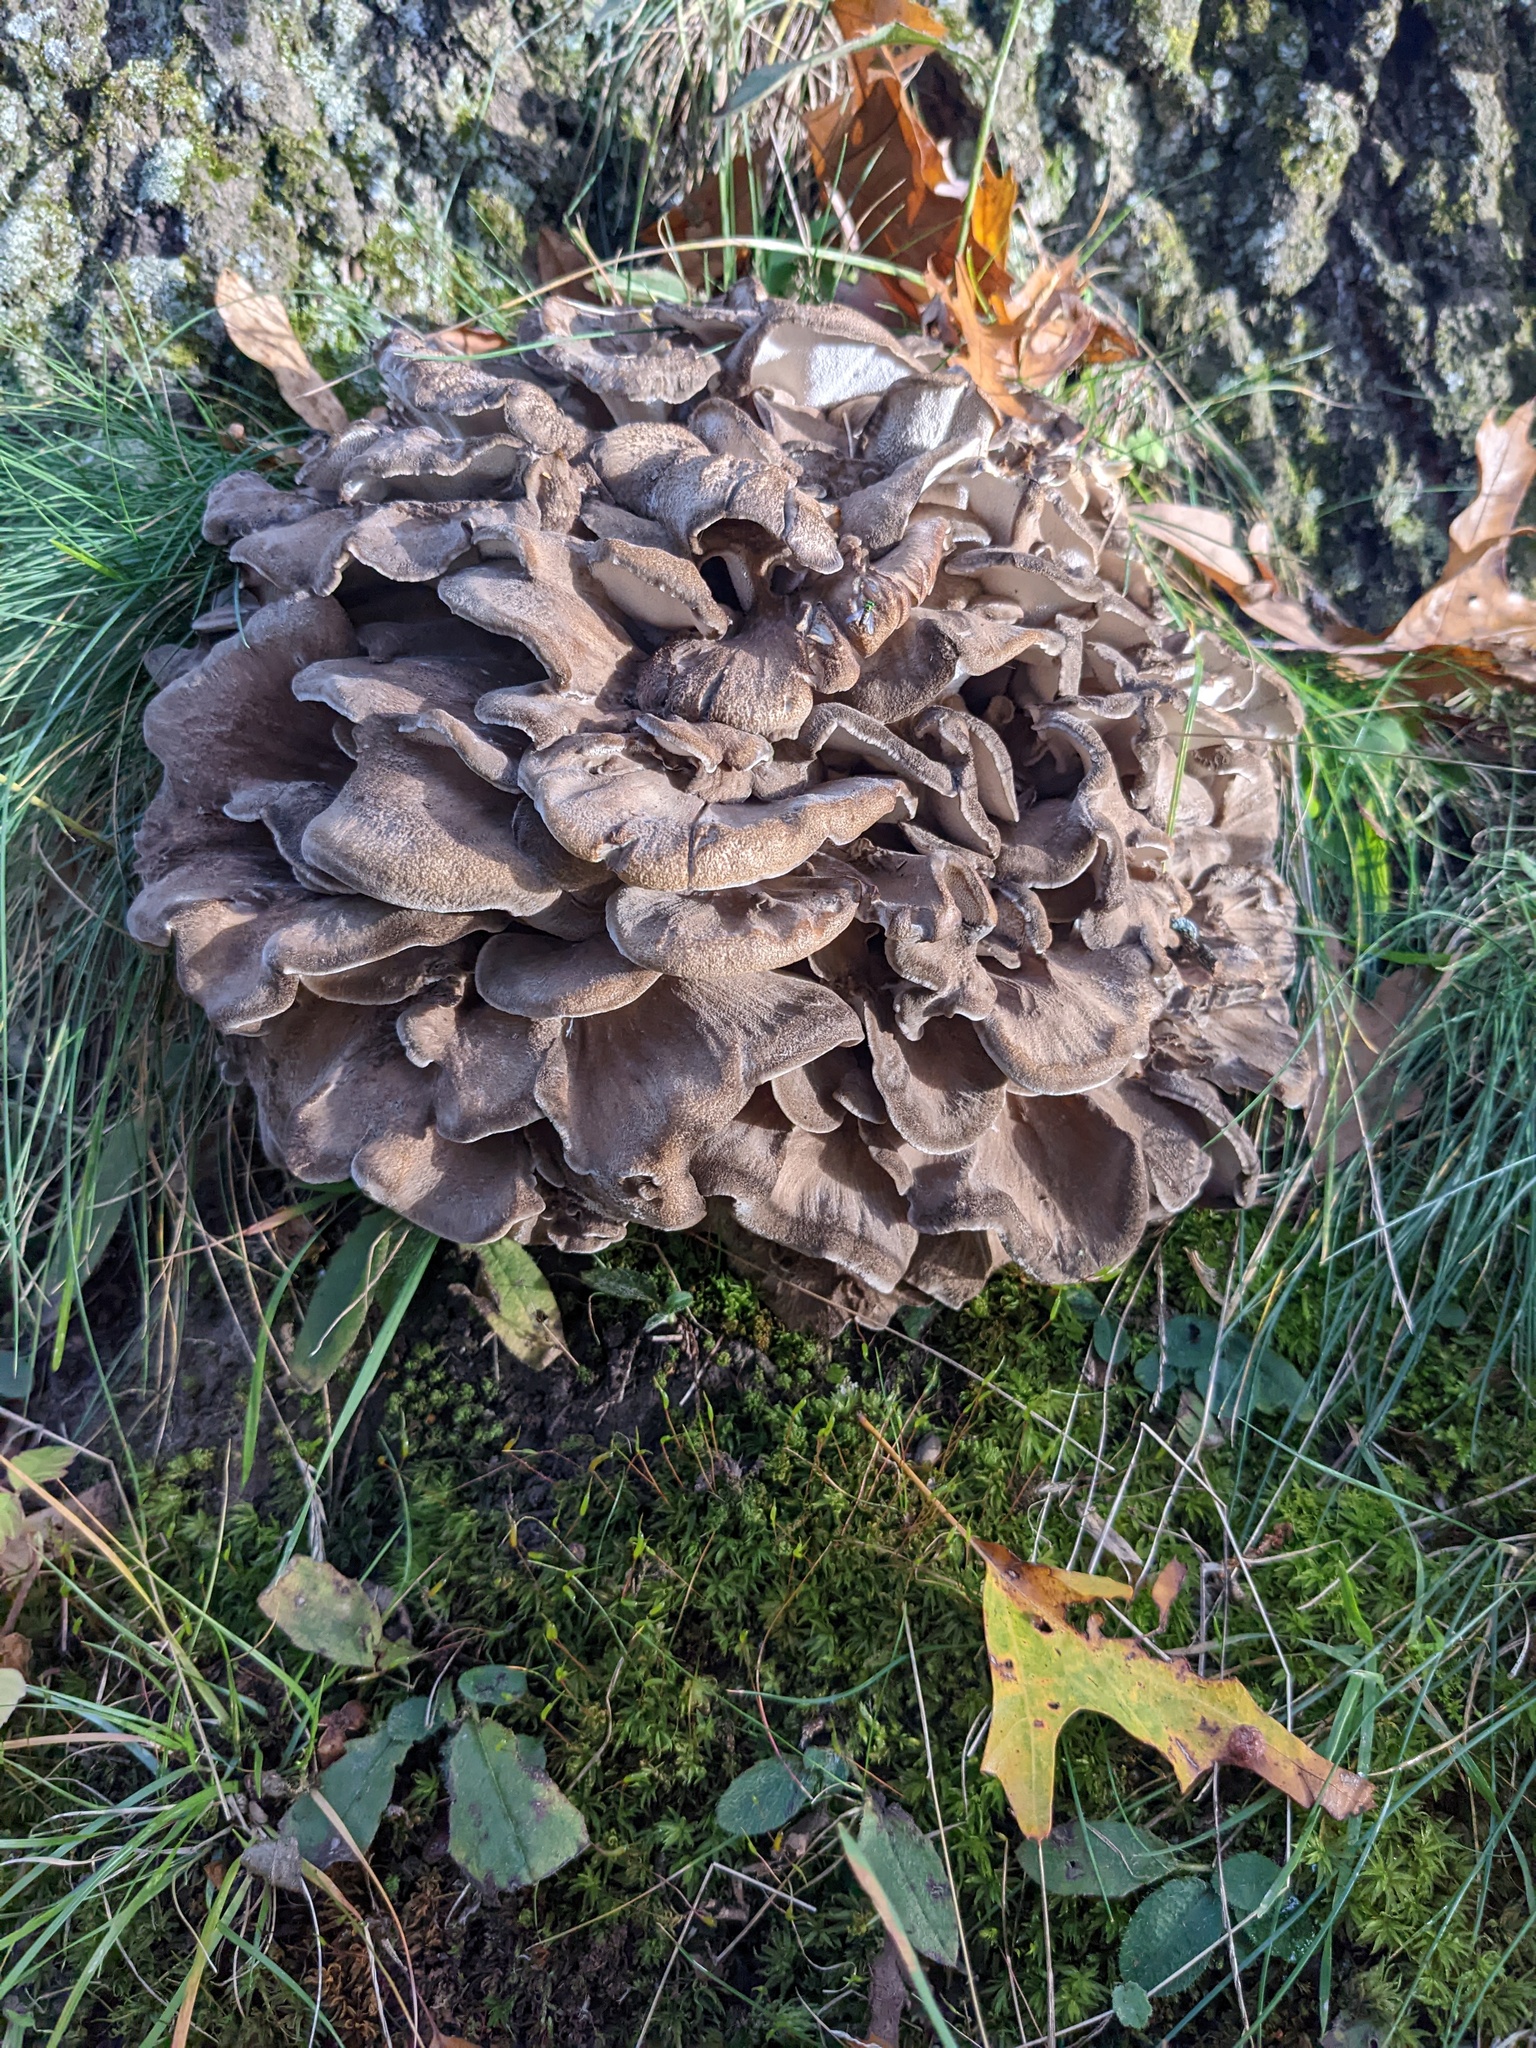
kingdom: Fungi
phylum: Basidiomycota
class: Agaricomycetes
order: Polyporales
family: Grifolaceae
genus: Grifola
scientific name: Grifola frondosa
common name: Hen of the woods
